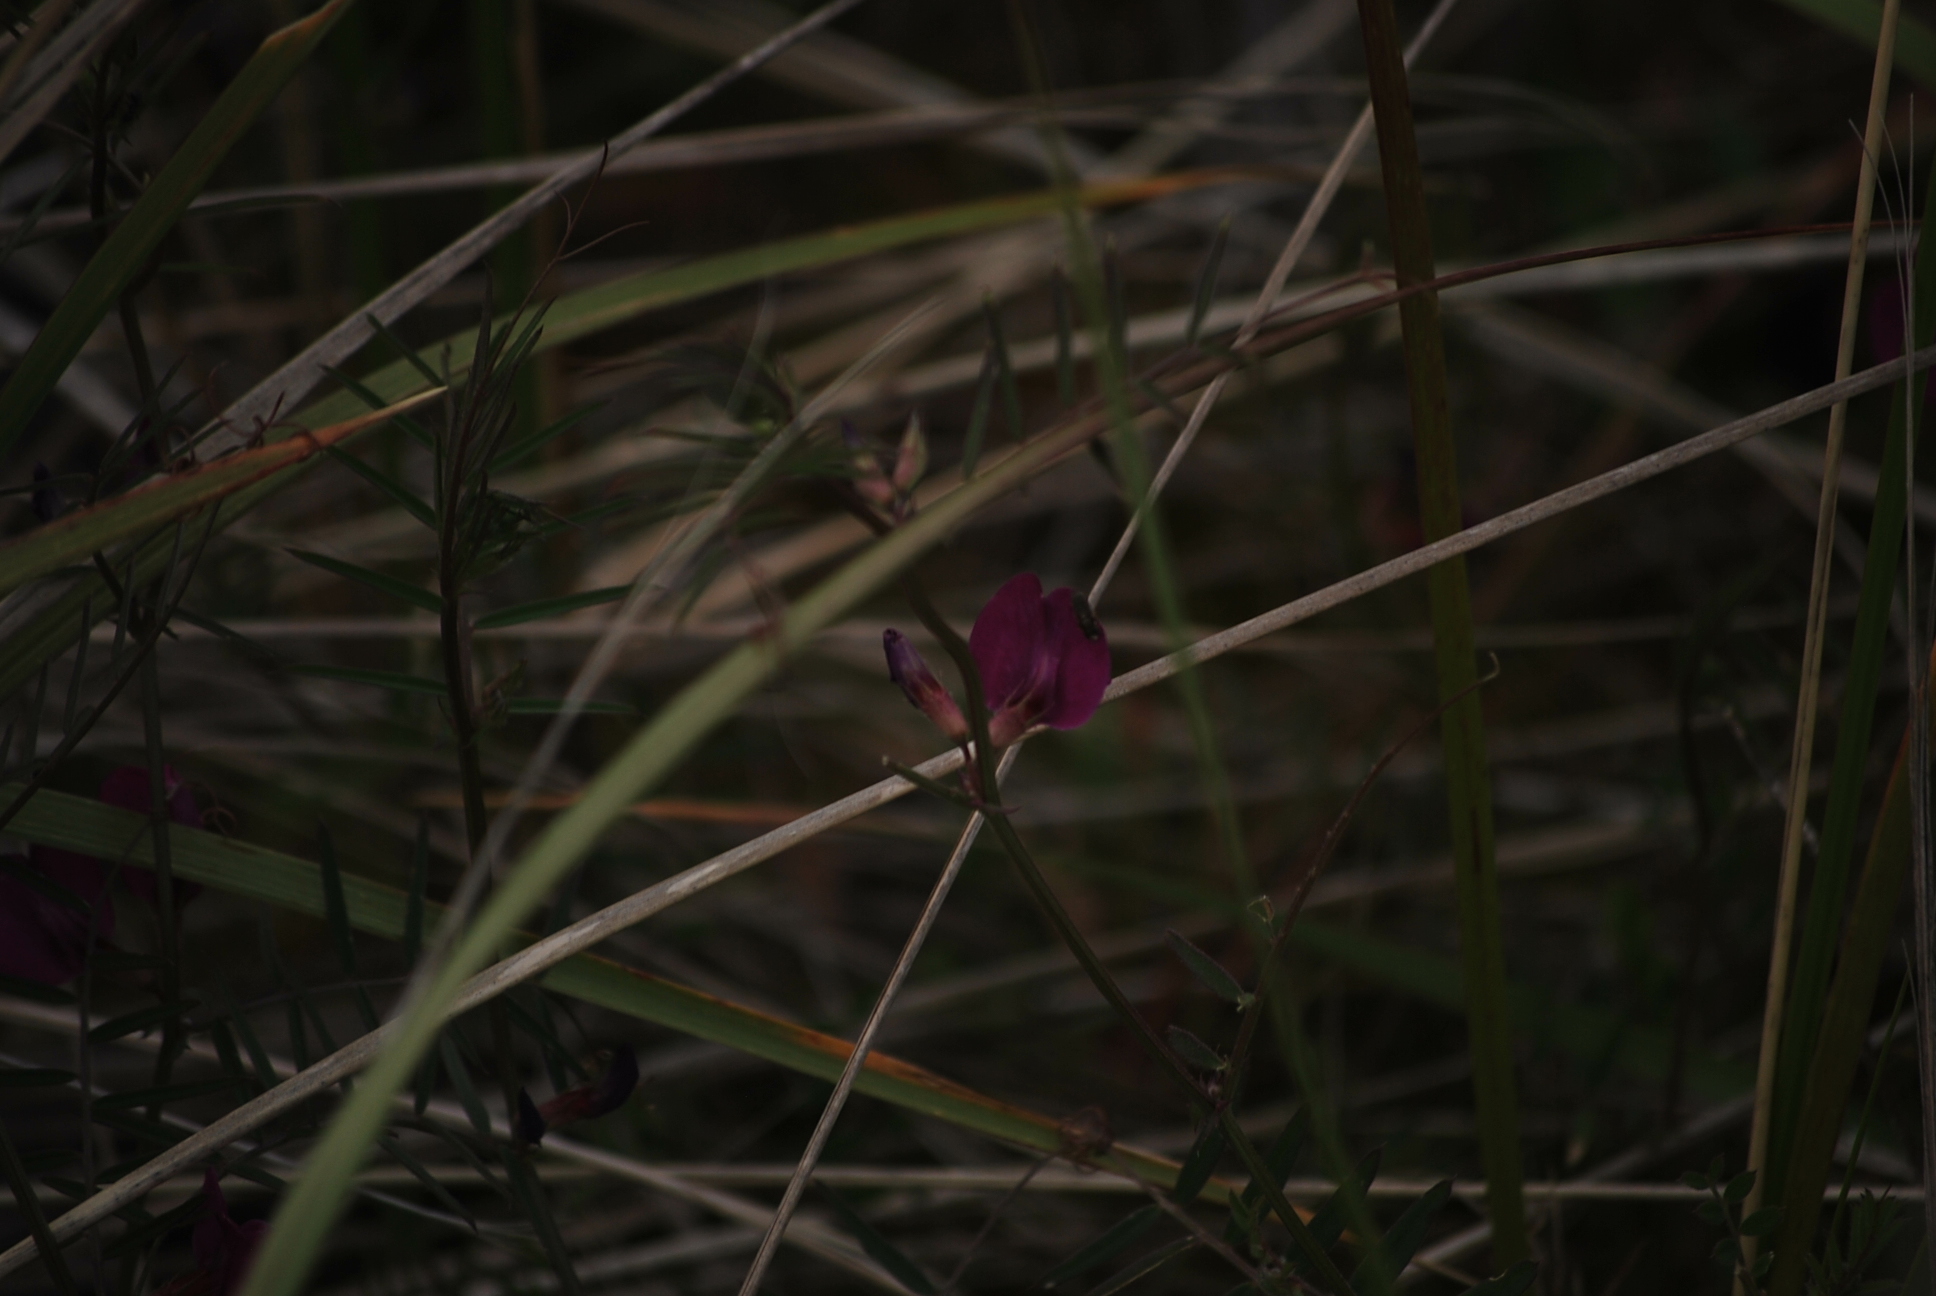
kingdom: Plantae
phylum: Tracheophyta
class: Magnoliopsida
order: Fabales
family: Fabaceae
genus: Vicia
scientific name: Vicia sativa
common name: Garden vetch
